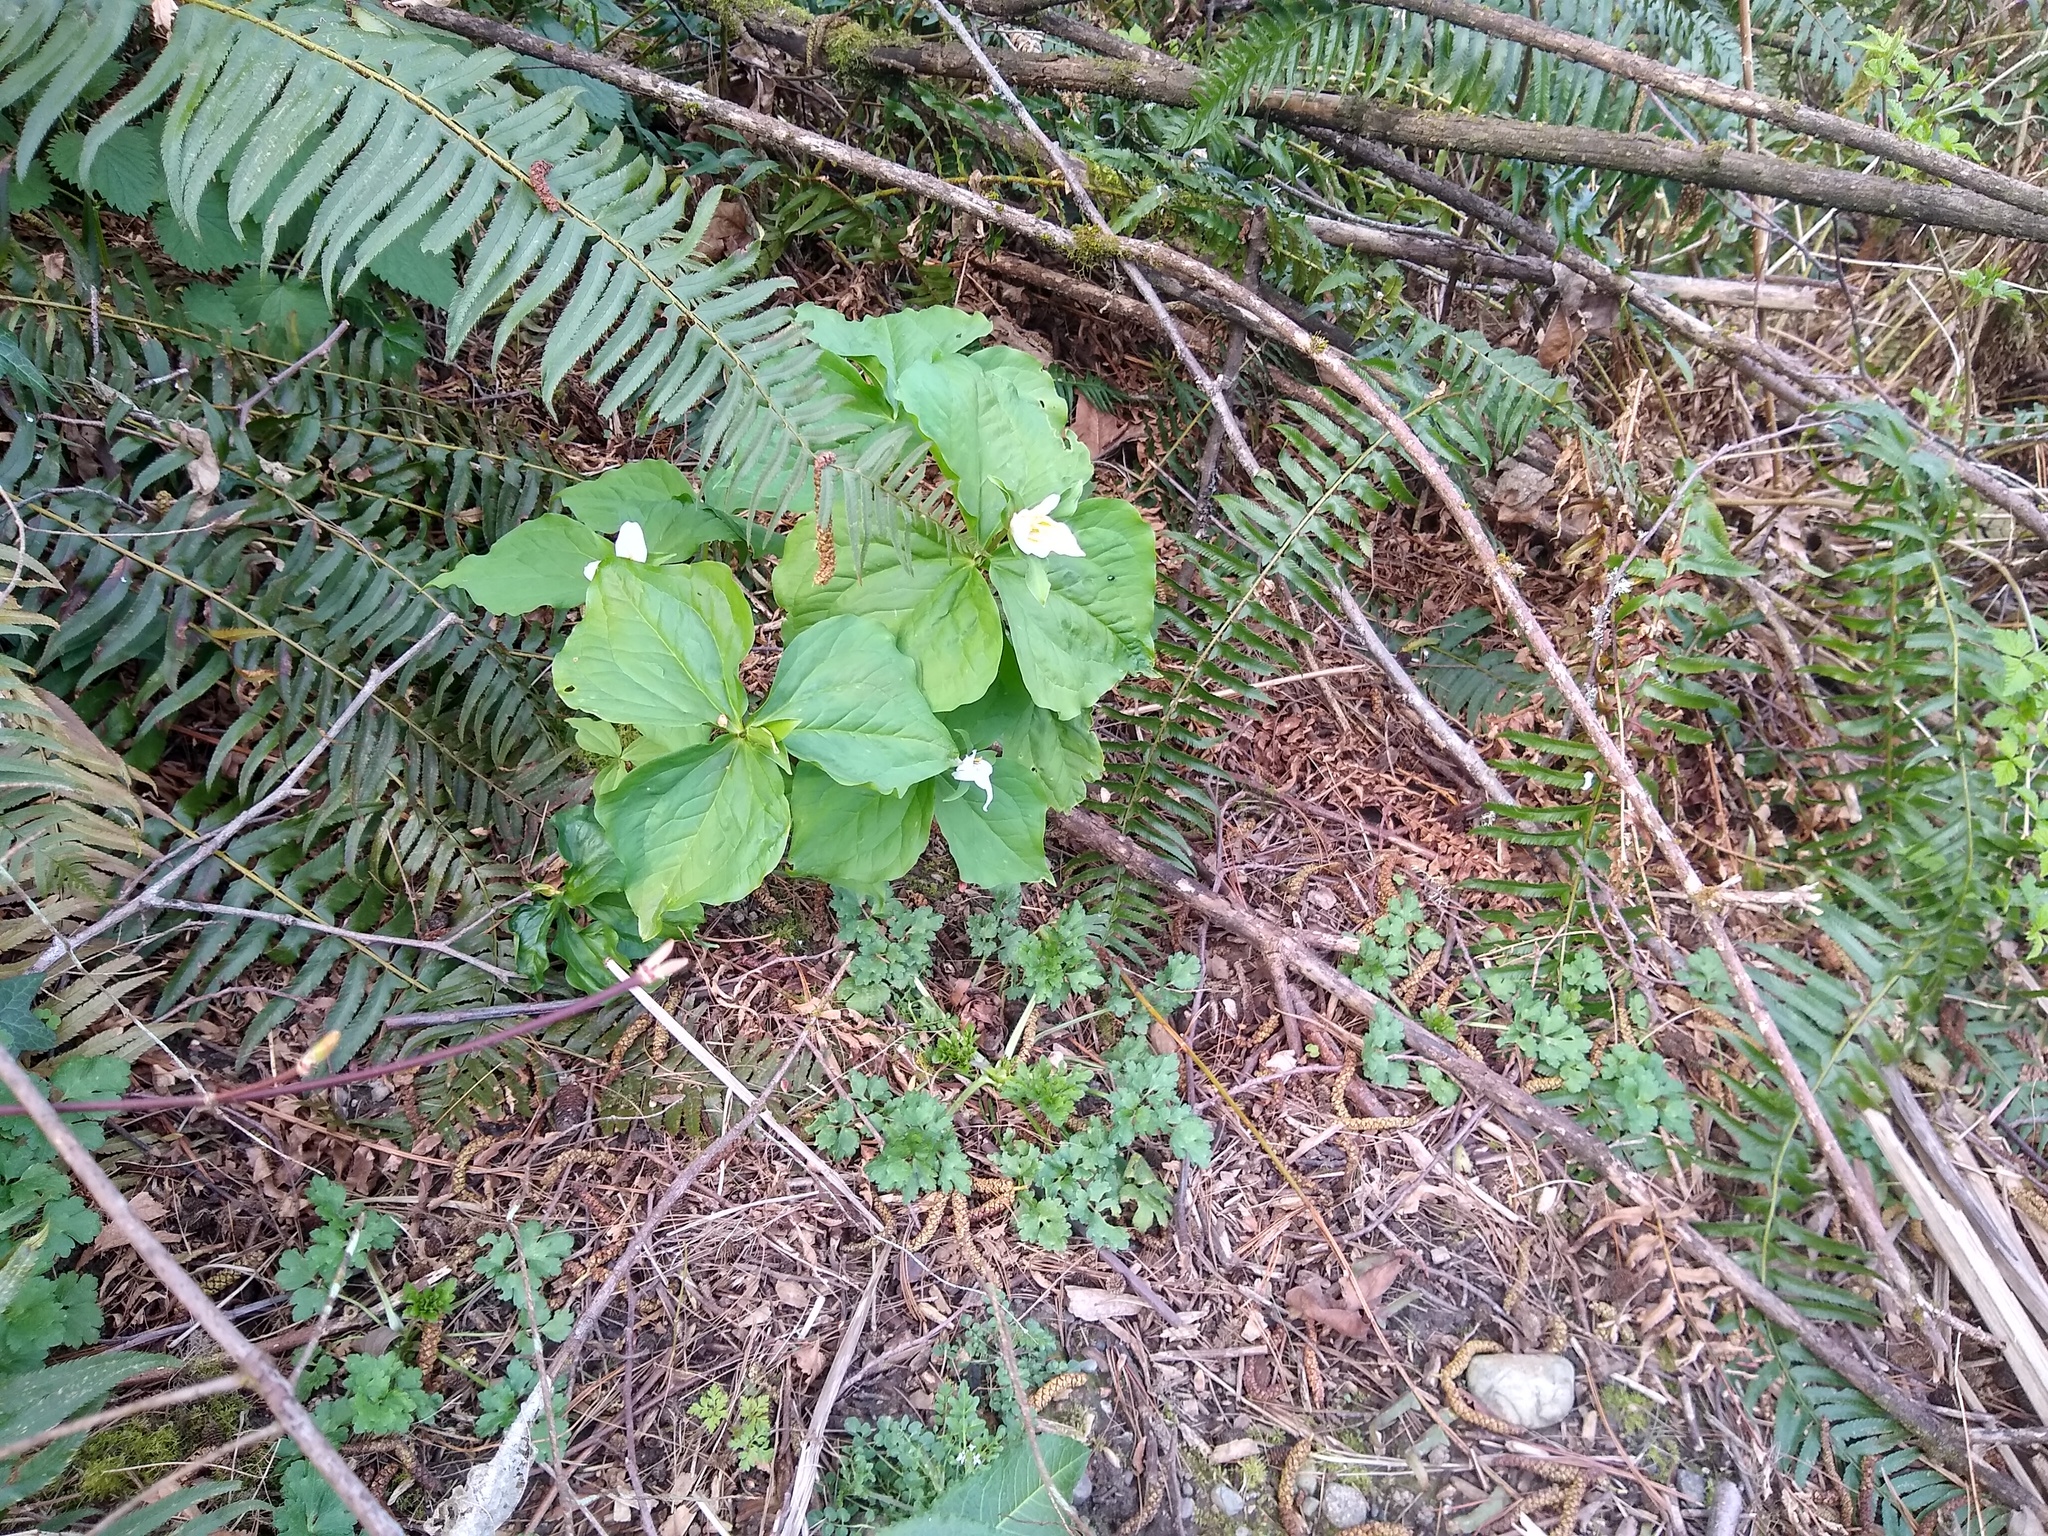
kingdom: Plantae
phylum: Tracheophyta
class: Liliopsida
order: Liliales
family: Melanthiaceae
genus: Trillium
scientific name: Trillium ovatum
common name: Pacific trillium
